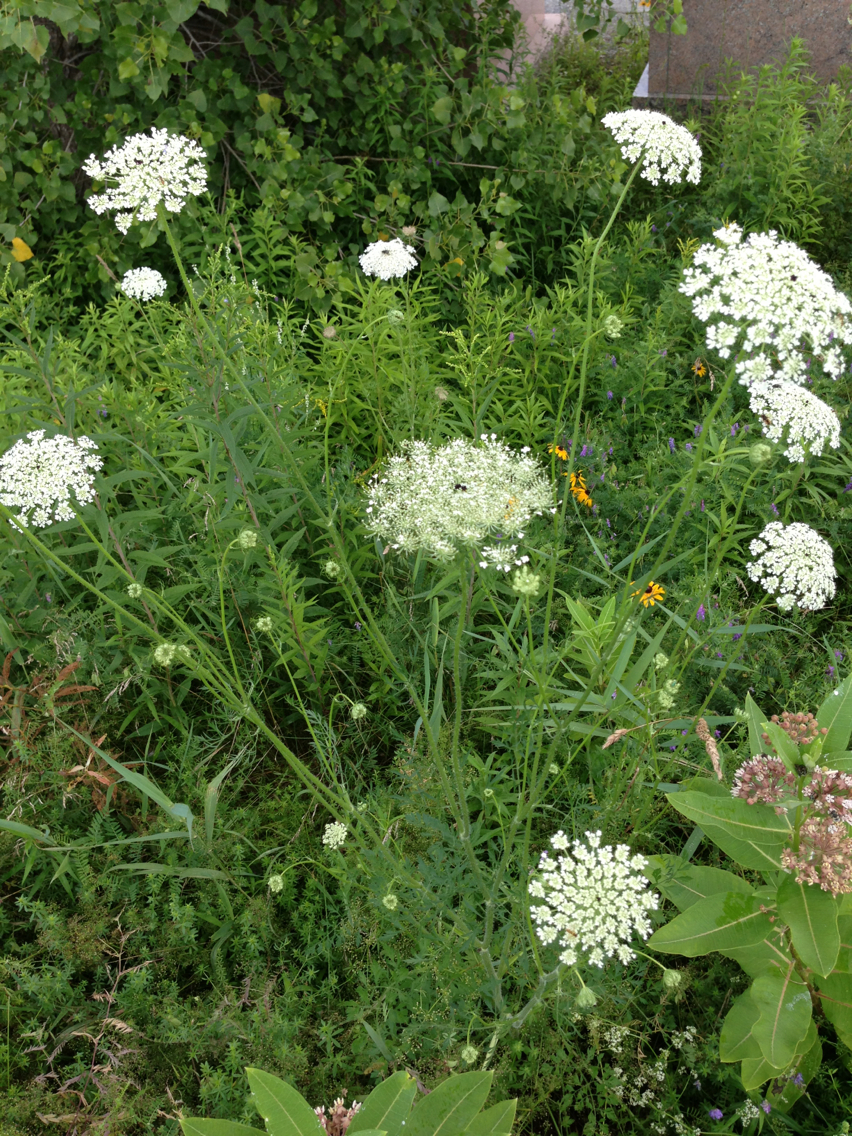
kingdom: Plantae
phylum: Tracheophyta
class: Magnoliopsida
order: Apiales
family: Apiaceae
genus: Daucus
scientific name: Daucus carota
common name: Wild carrot
